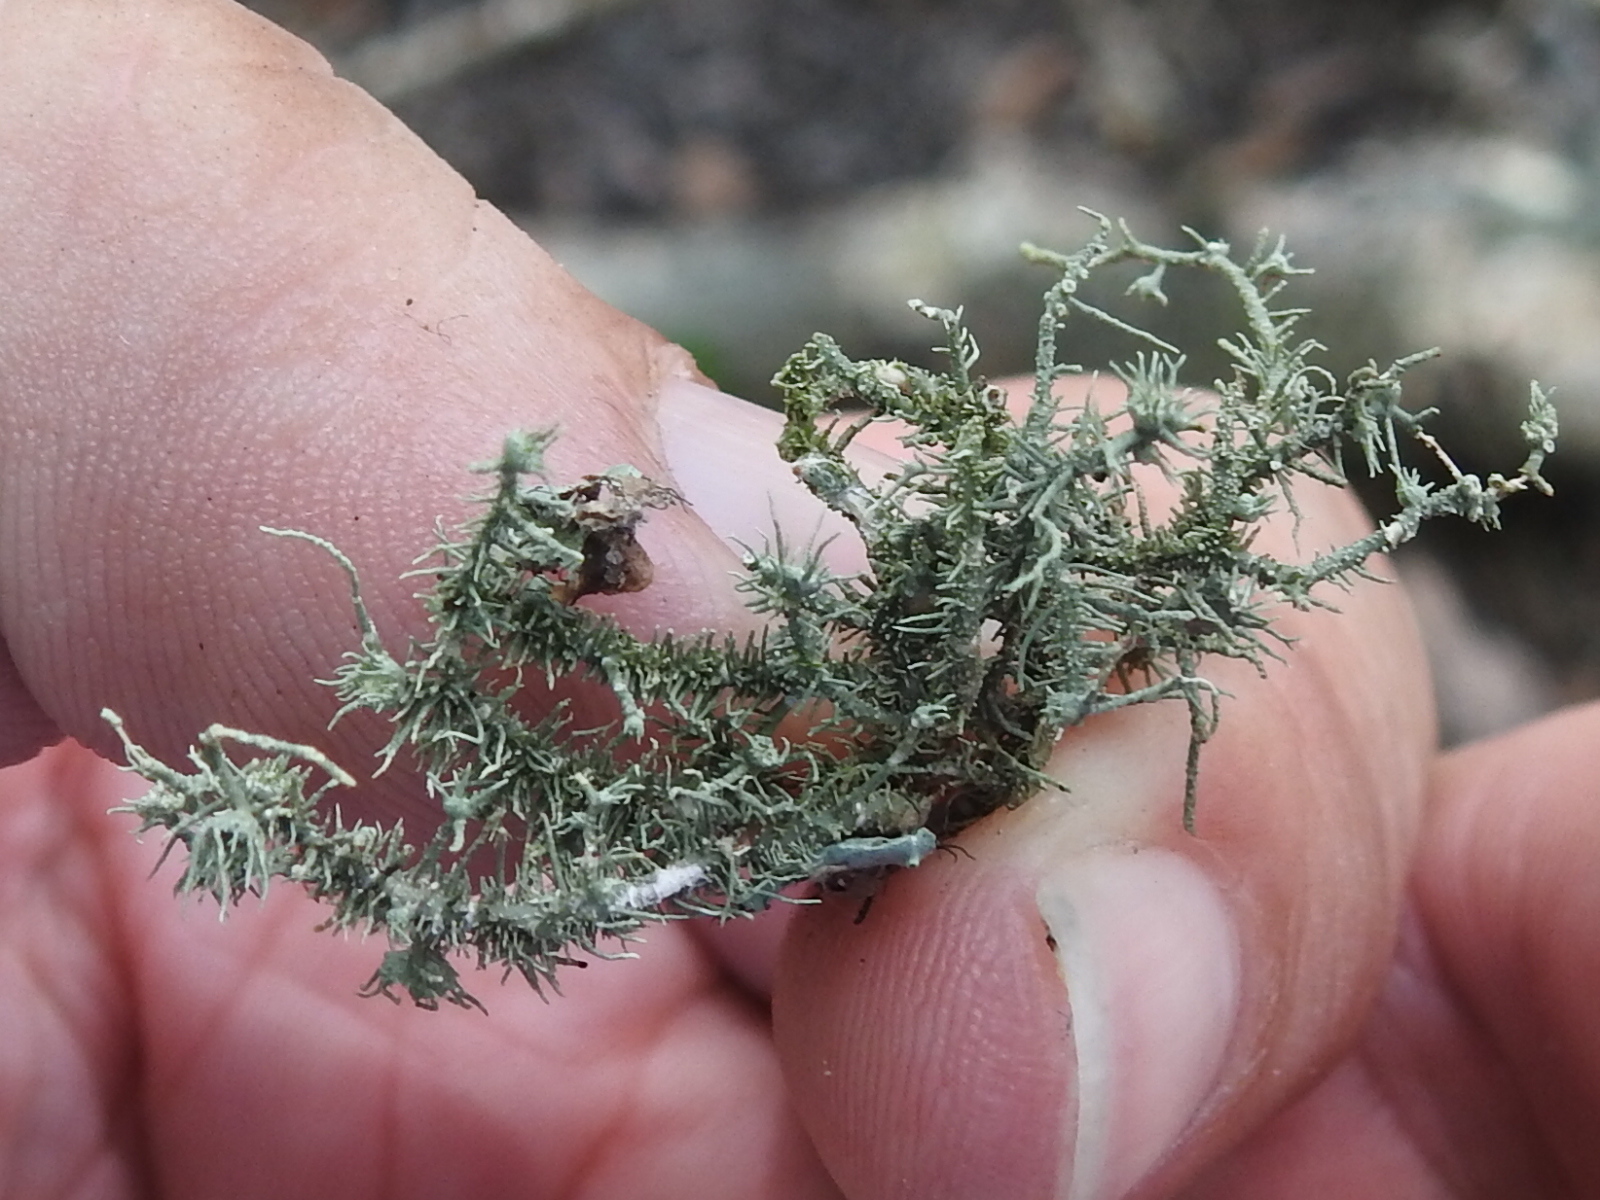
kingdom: Fungi
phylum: Ascomycota
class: Lecanoromycetes
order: Lecanorales
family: Parmeliaceae
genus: Usnea
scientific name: Usnea strigosa
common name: Bushy beard lichen
